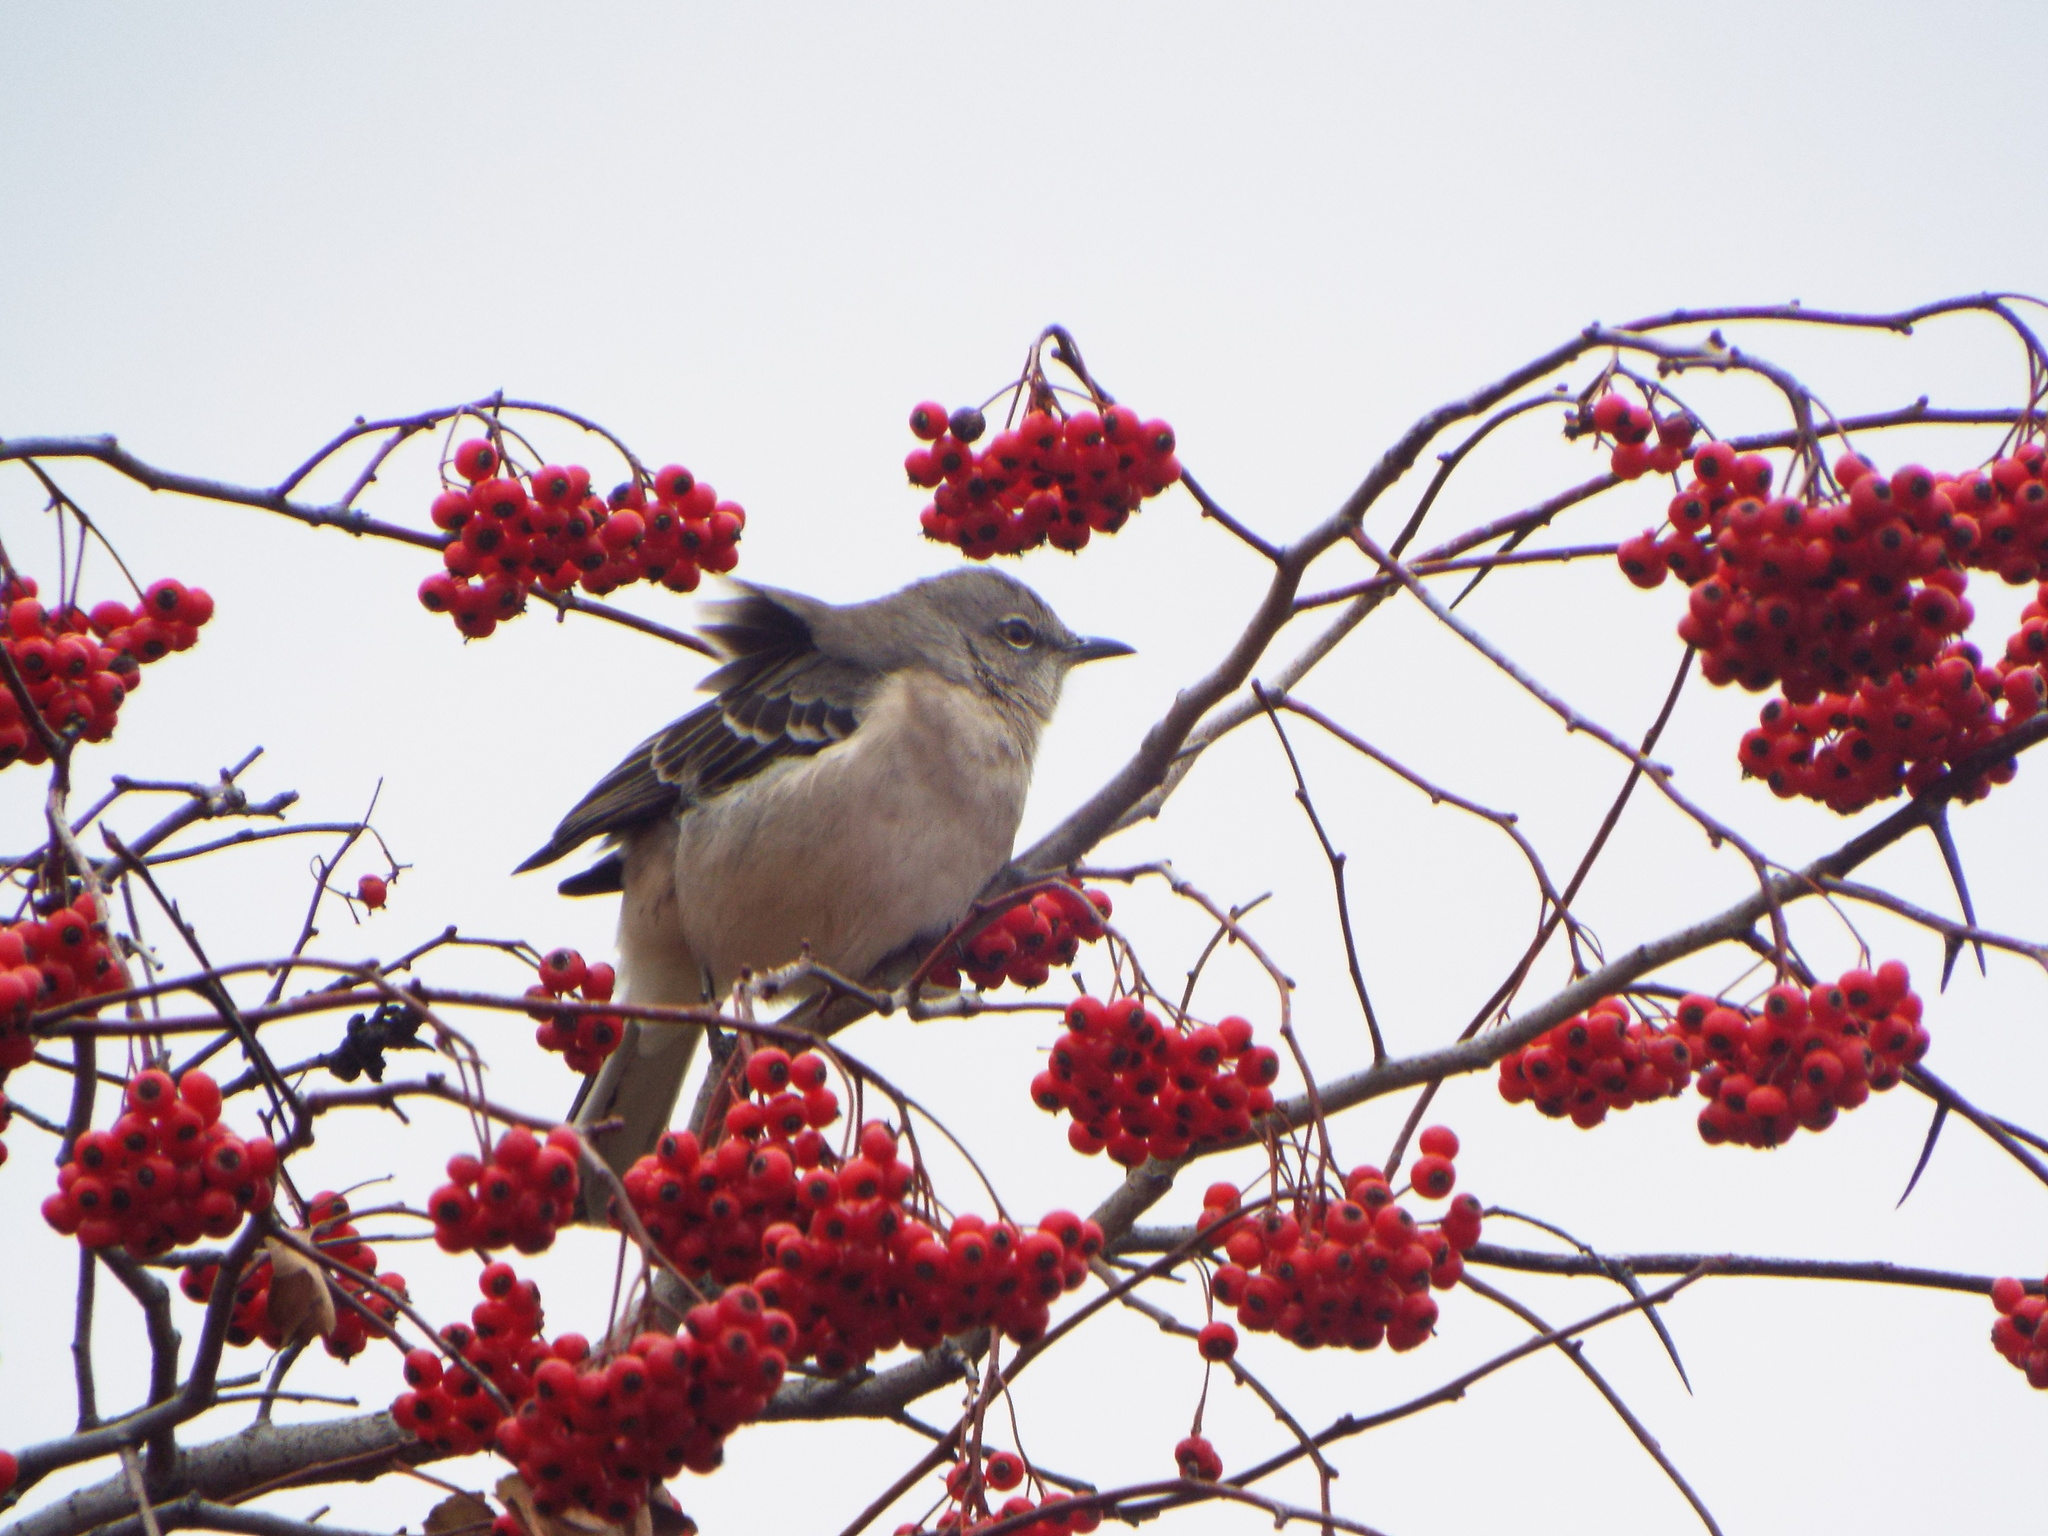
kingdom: Animalia
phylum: Chordata
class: Aves
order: Passeriformes
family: Mimidae
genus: Mimus
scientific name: Mimus polyglottos
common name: Northern mockingbird
